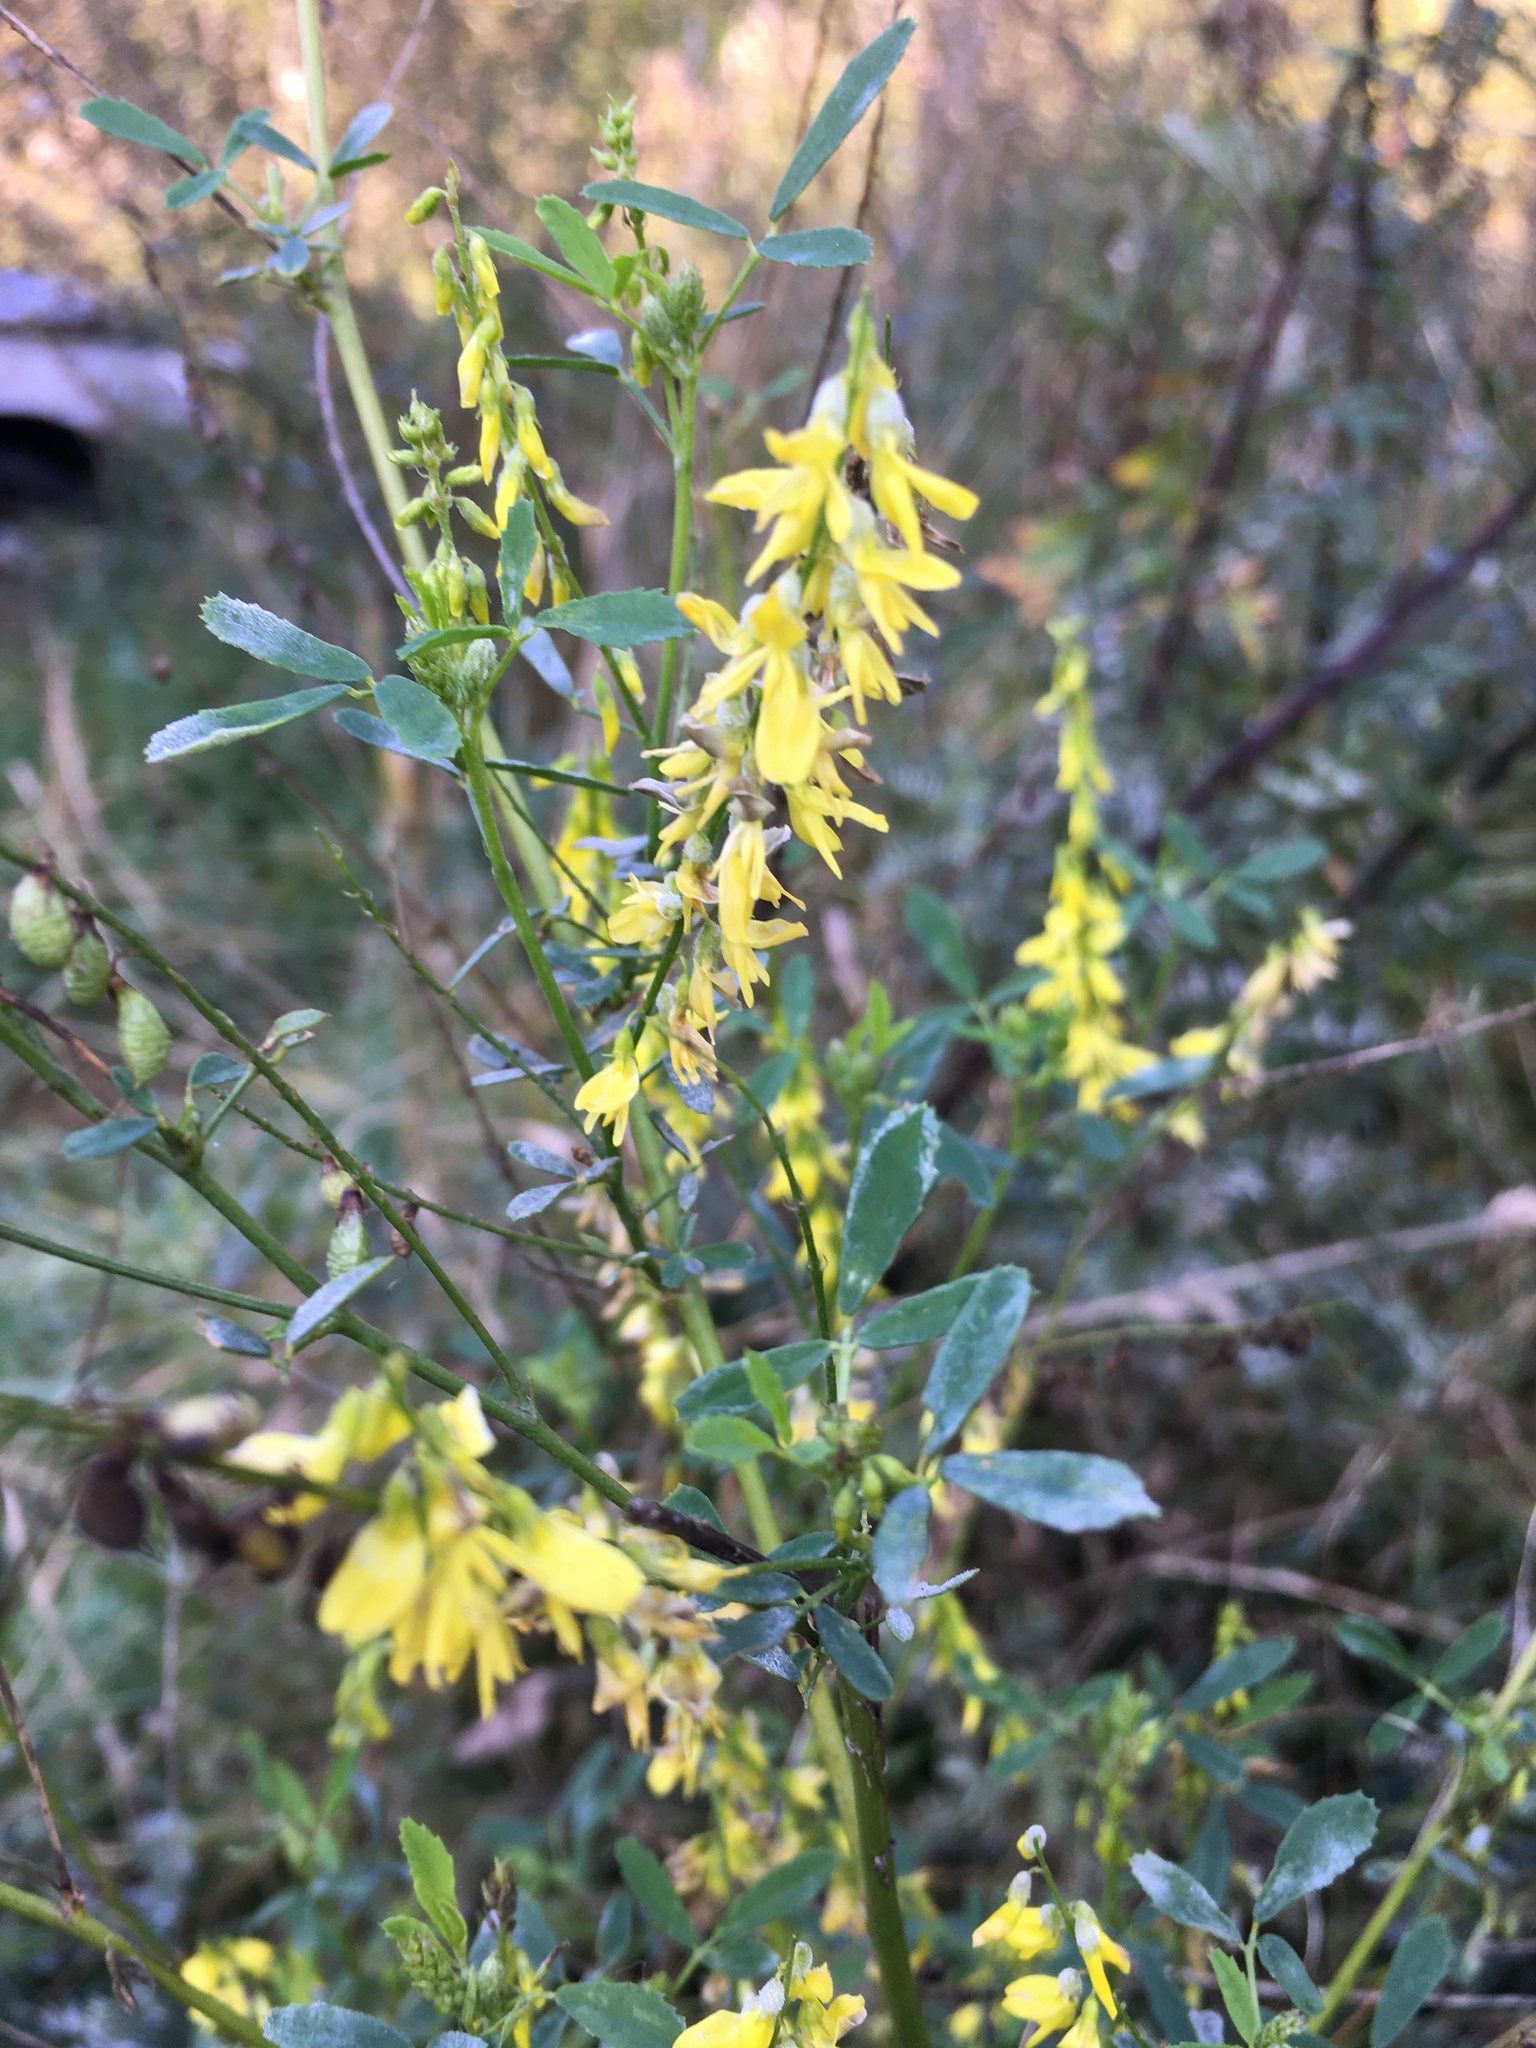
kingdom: Plantae
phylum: Tracheophyta
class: Magnoliopsida
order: Fabales
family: Fabaceae
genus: Melilotus
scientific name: Melilotus officinalis
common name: Sweetclover
